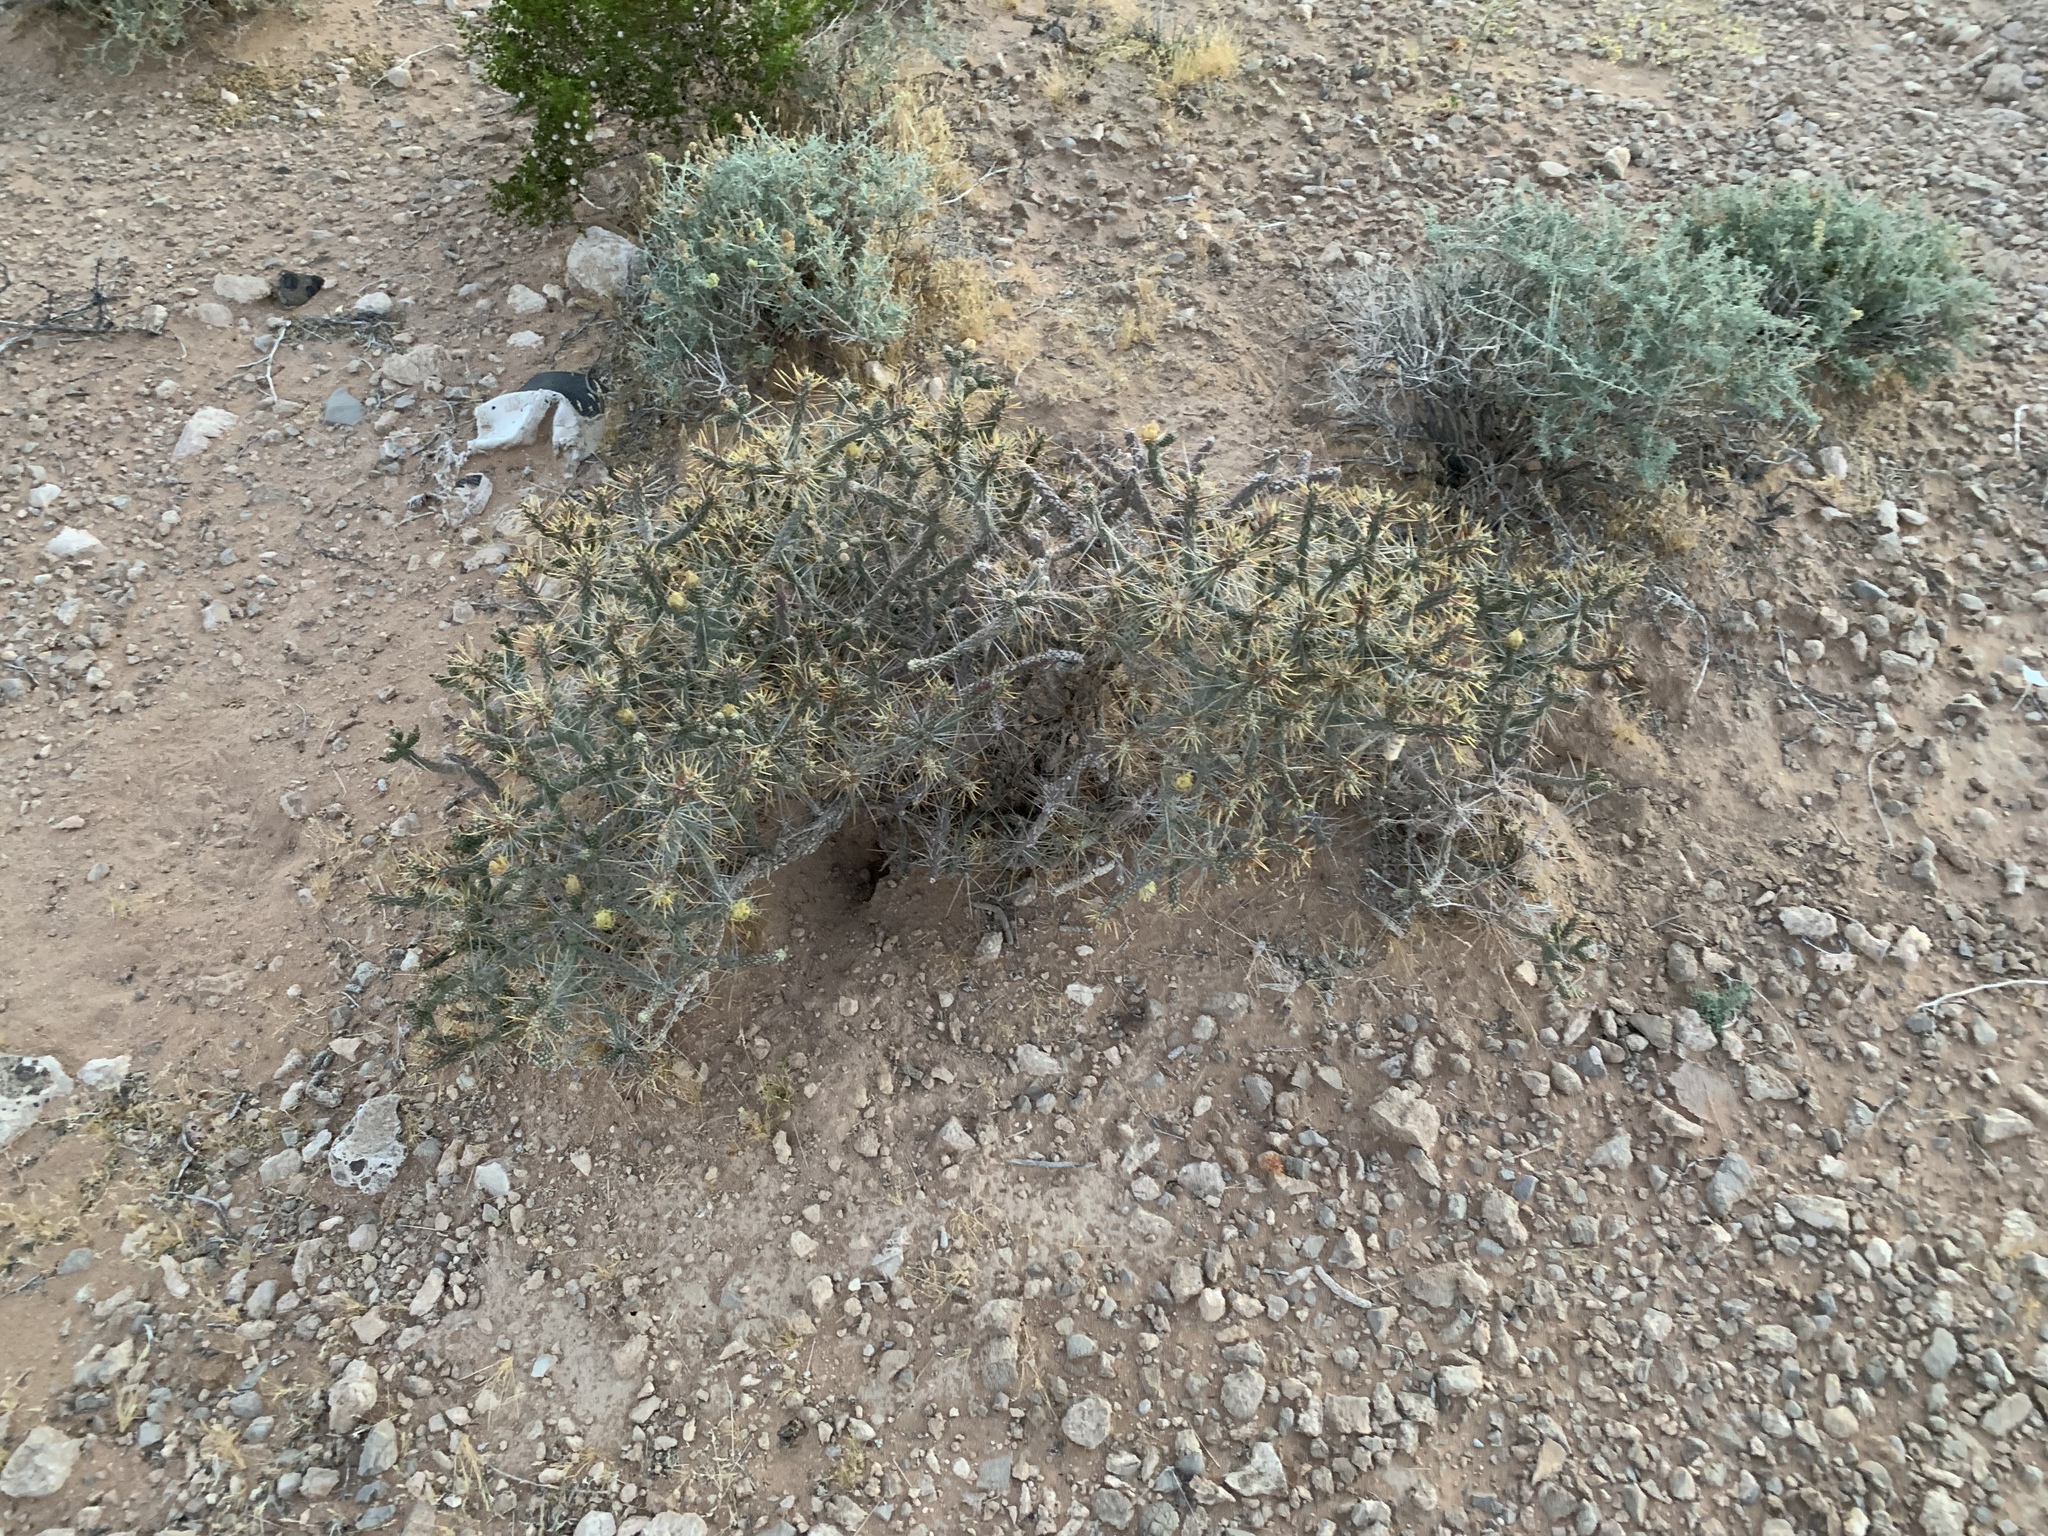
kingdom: Plantae
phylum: Tracheophyta
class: Magnoliopsida
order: Caryophyllales
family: Cactaceae
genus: Cylindropuntia
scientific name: Cylindropuntia ramosissima
